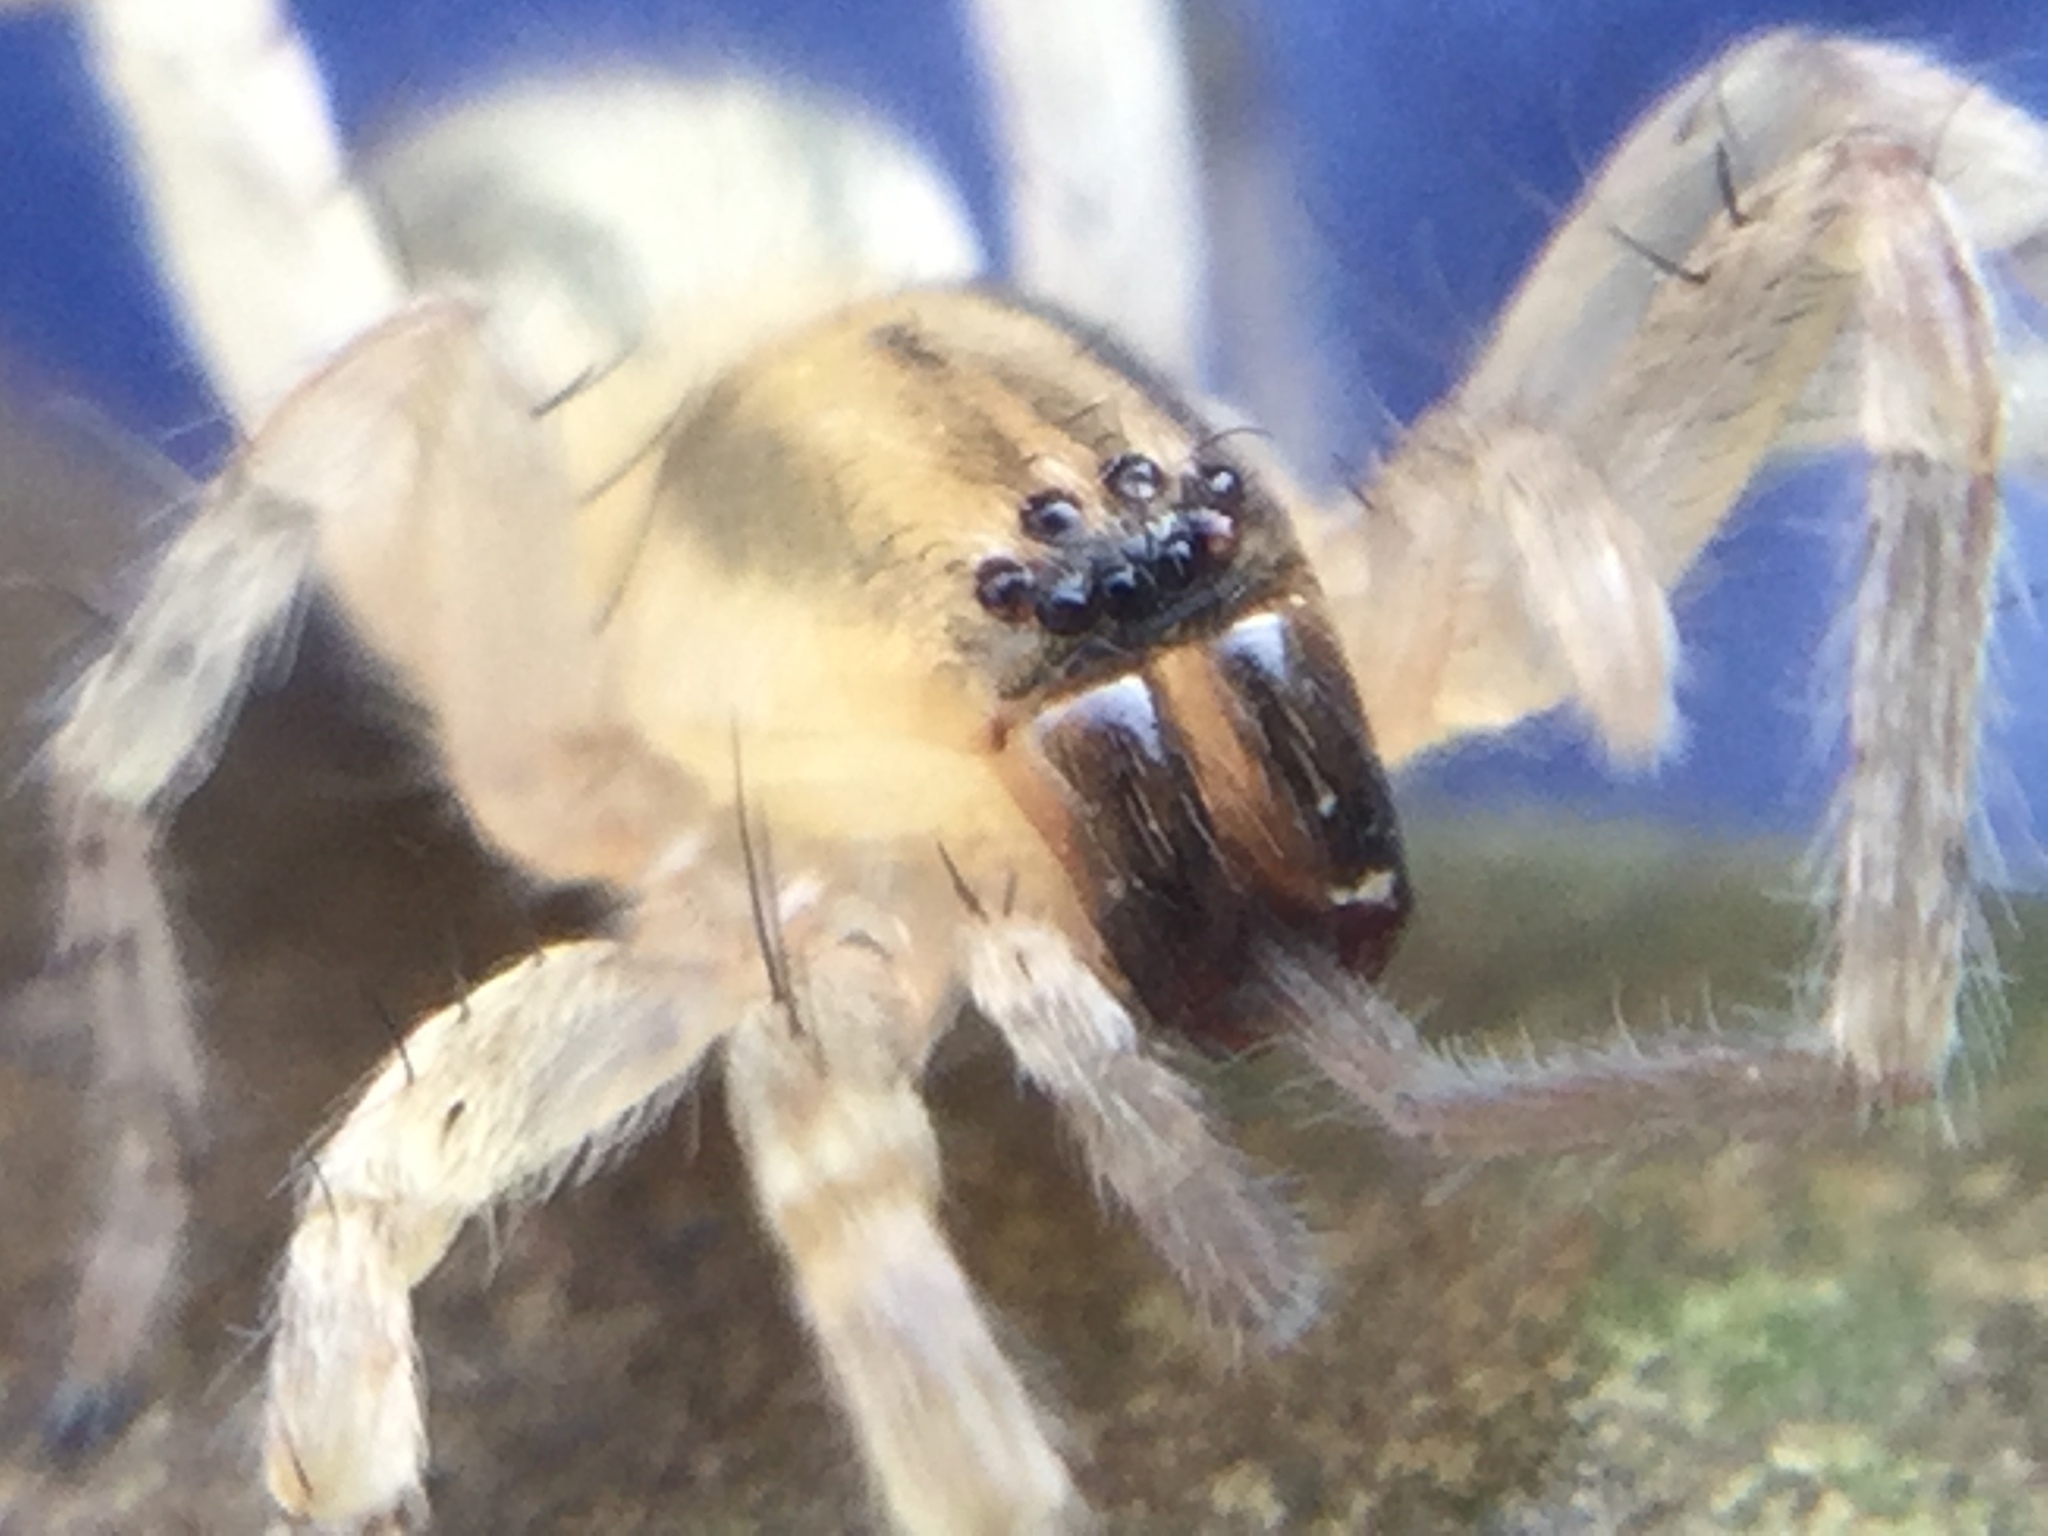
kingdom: Animalia
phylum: Arthropoda
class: Arachnida
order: Araneae
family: Anyphaenidae
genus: Hibana
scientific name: Hibana gracilis
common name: Garden ghost spider
